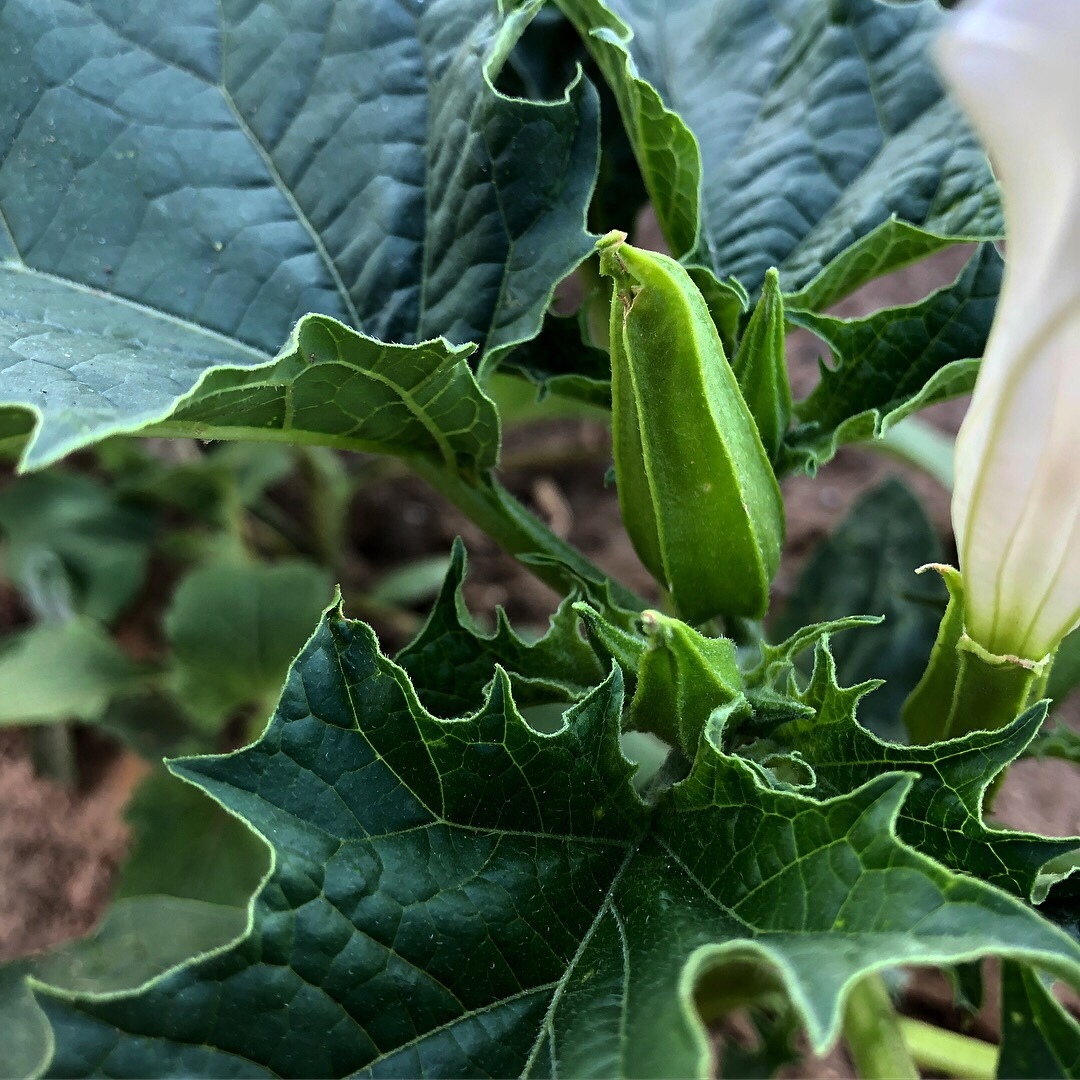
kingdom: Plantae
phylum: Tracheophyta
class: Magnoliopsida
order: Solanales
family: Solanaceae
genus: Datura
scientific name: Datura stramonium
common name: Thorn-apple
